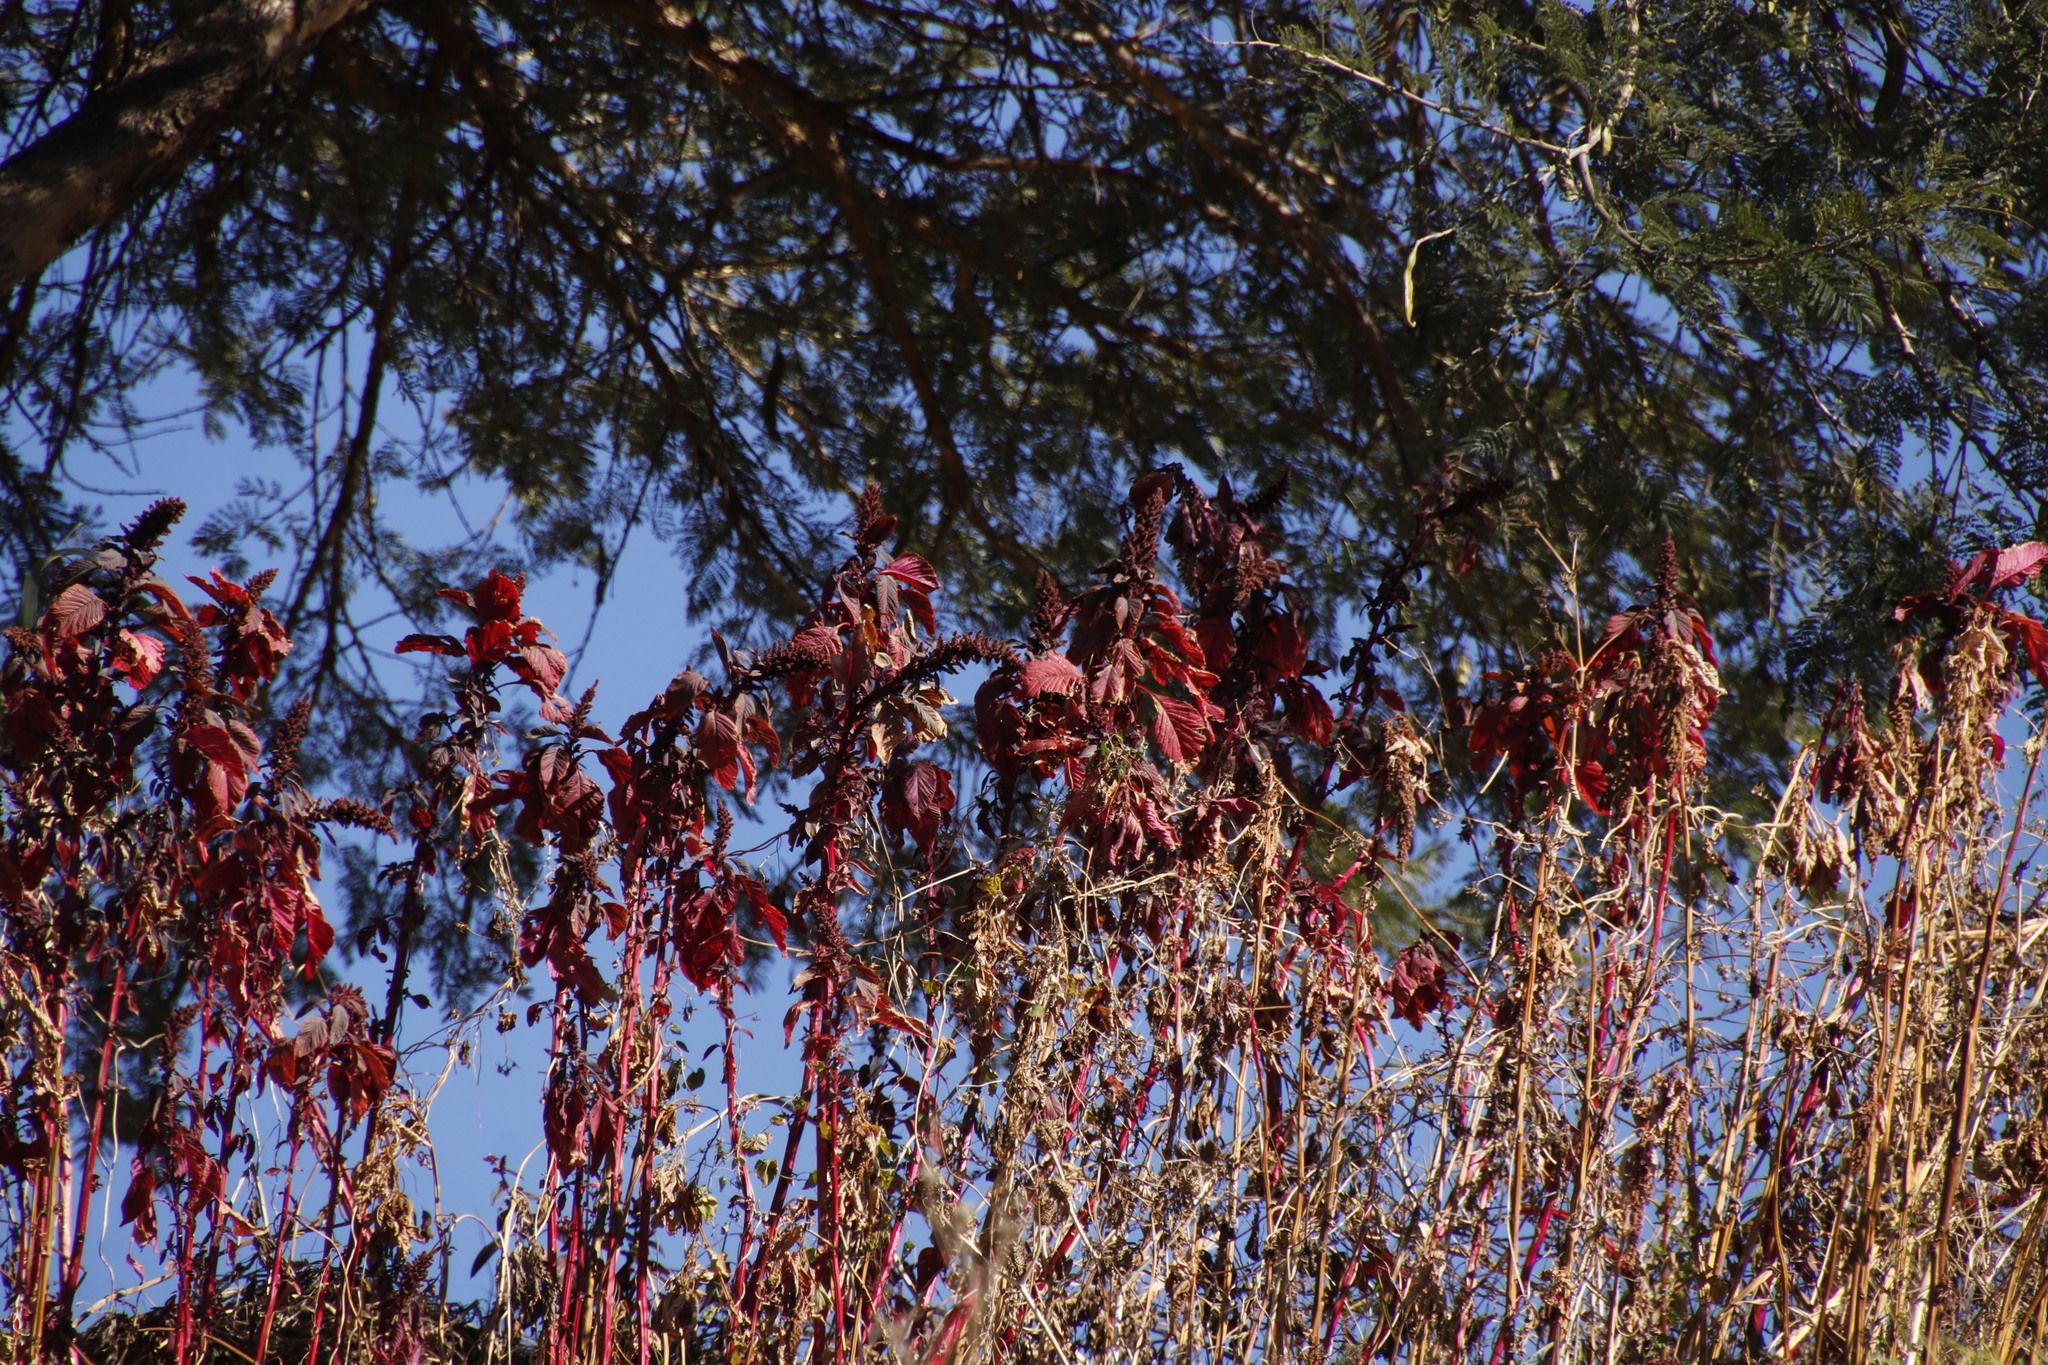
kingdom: Plantae
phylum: Tracheophyta
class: Magnoliopsida
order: Caryophyllales
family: Amaranthaceae
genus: Amaranthus
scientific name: Amaranthus cruentus
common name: Purple amaranth
